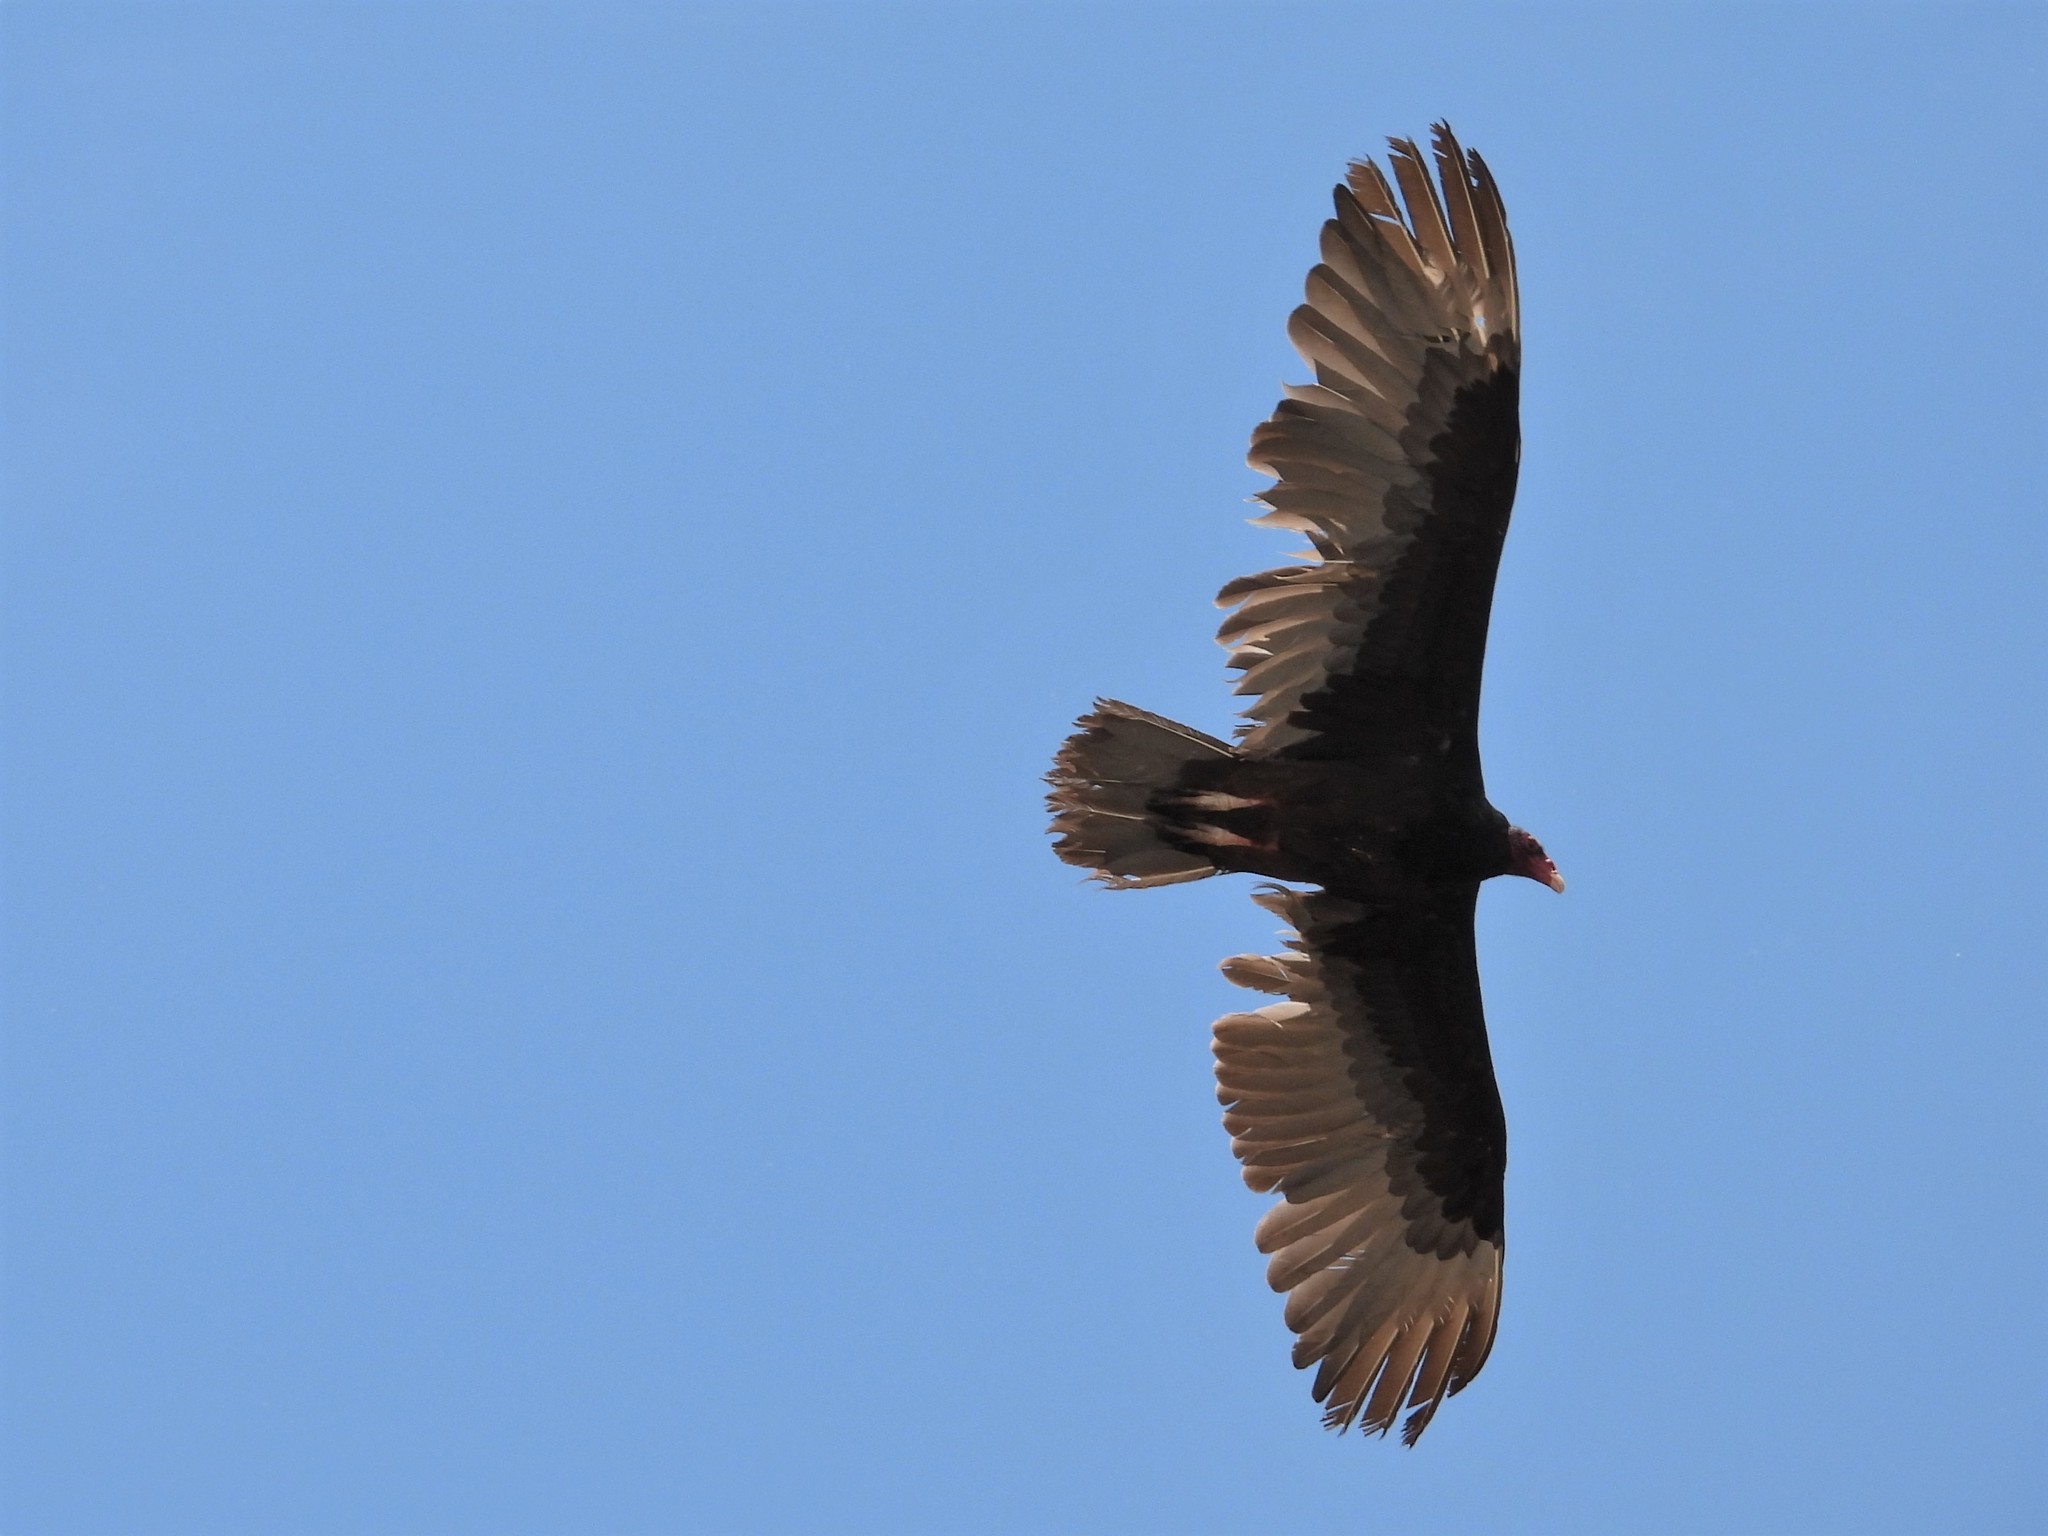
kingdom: Animalia
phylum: Chordata
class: Aves
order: Accipitriformes
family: Cathartidae
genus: Cathartes
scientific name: Cathartes aura
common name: Turkey vulture
